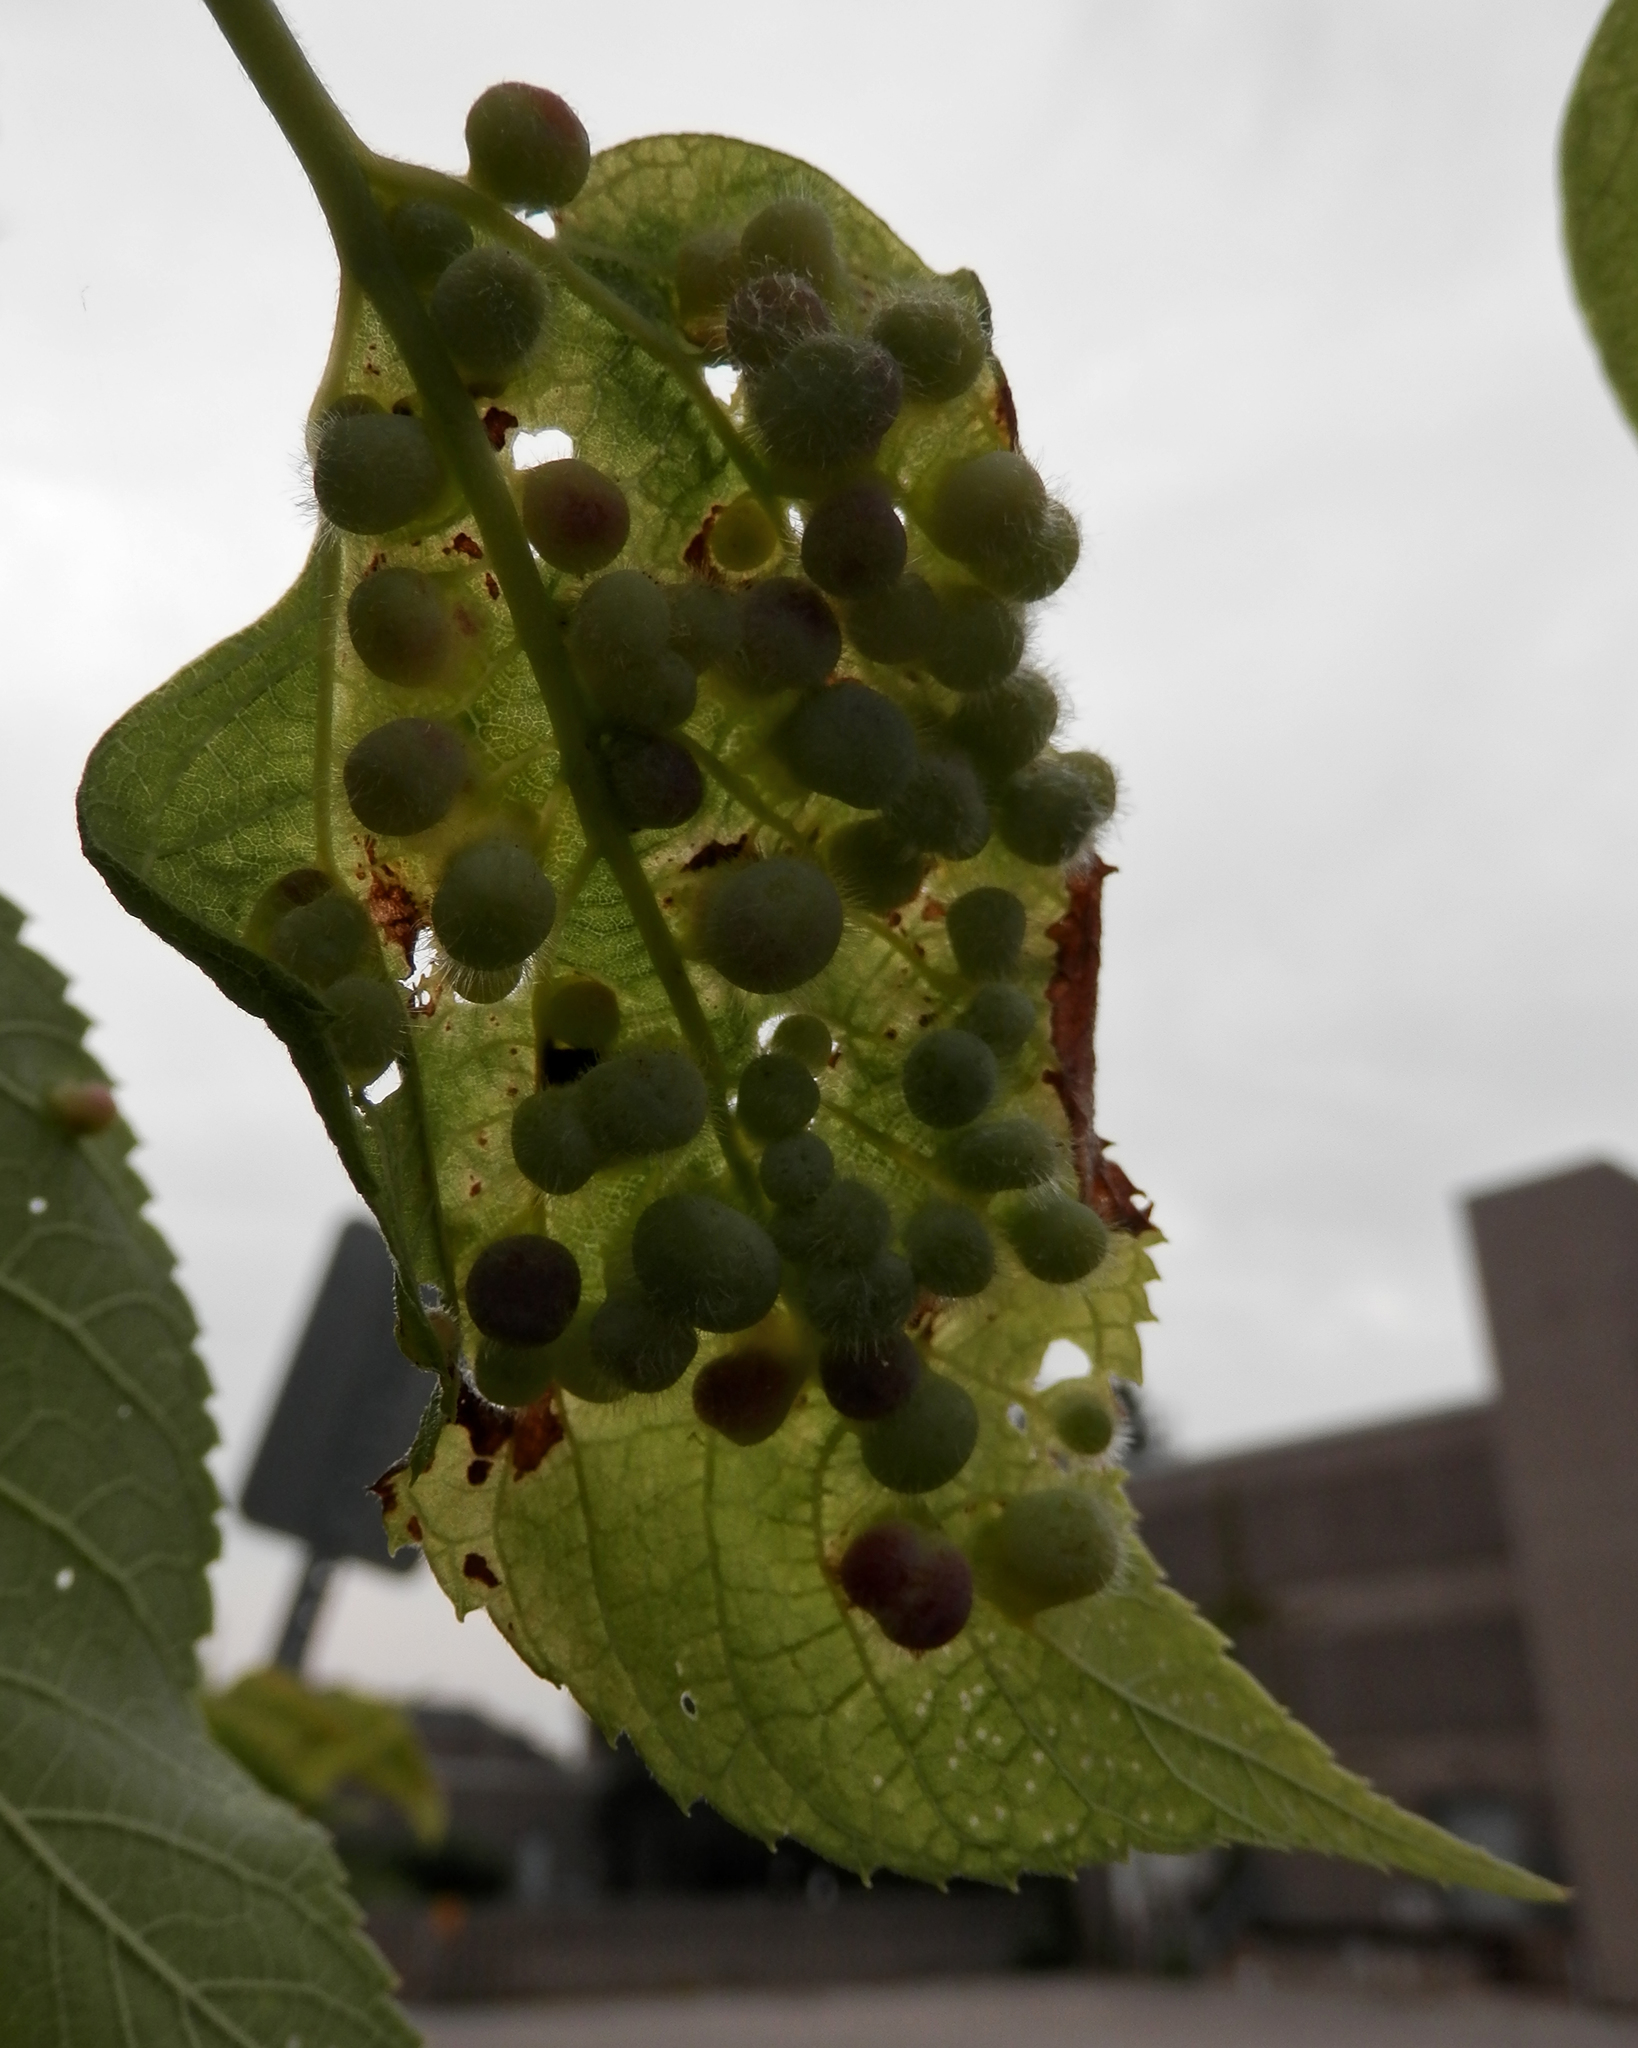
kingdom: Animalia
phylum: Arthropoda
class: Insecta
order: Hemiptera
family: Aphalaridae
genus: Pachypsylla
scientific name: Pachypsylla celtidismamma
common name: Hackberry nipplegall psyllid
